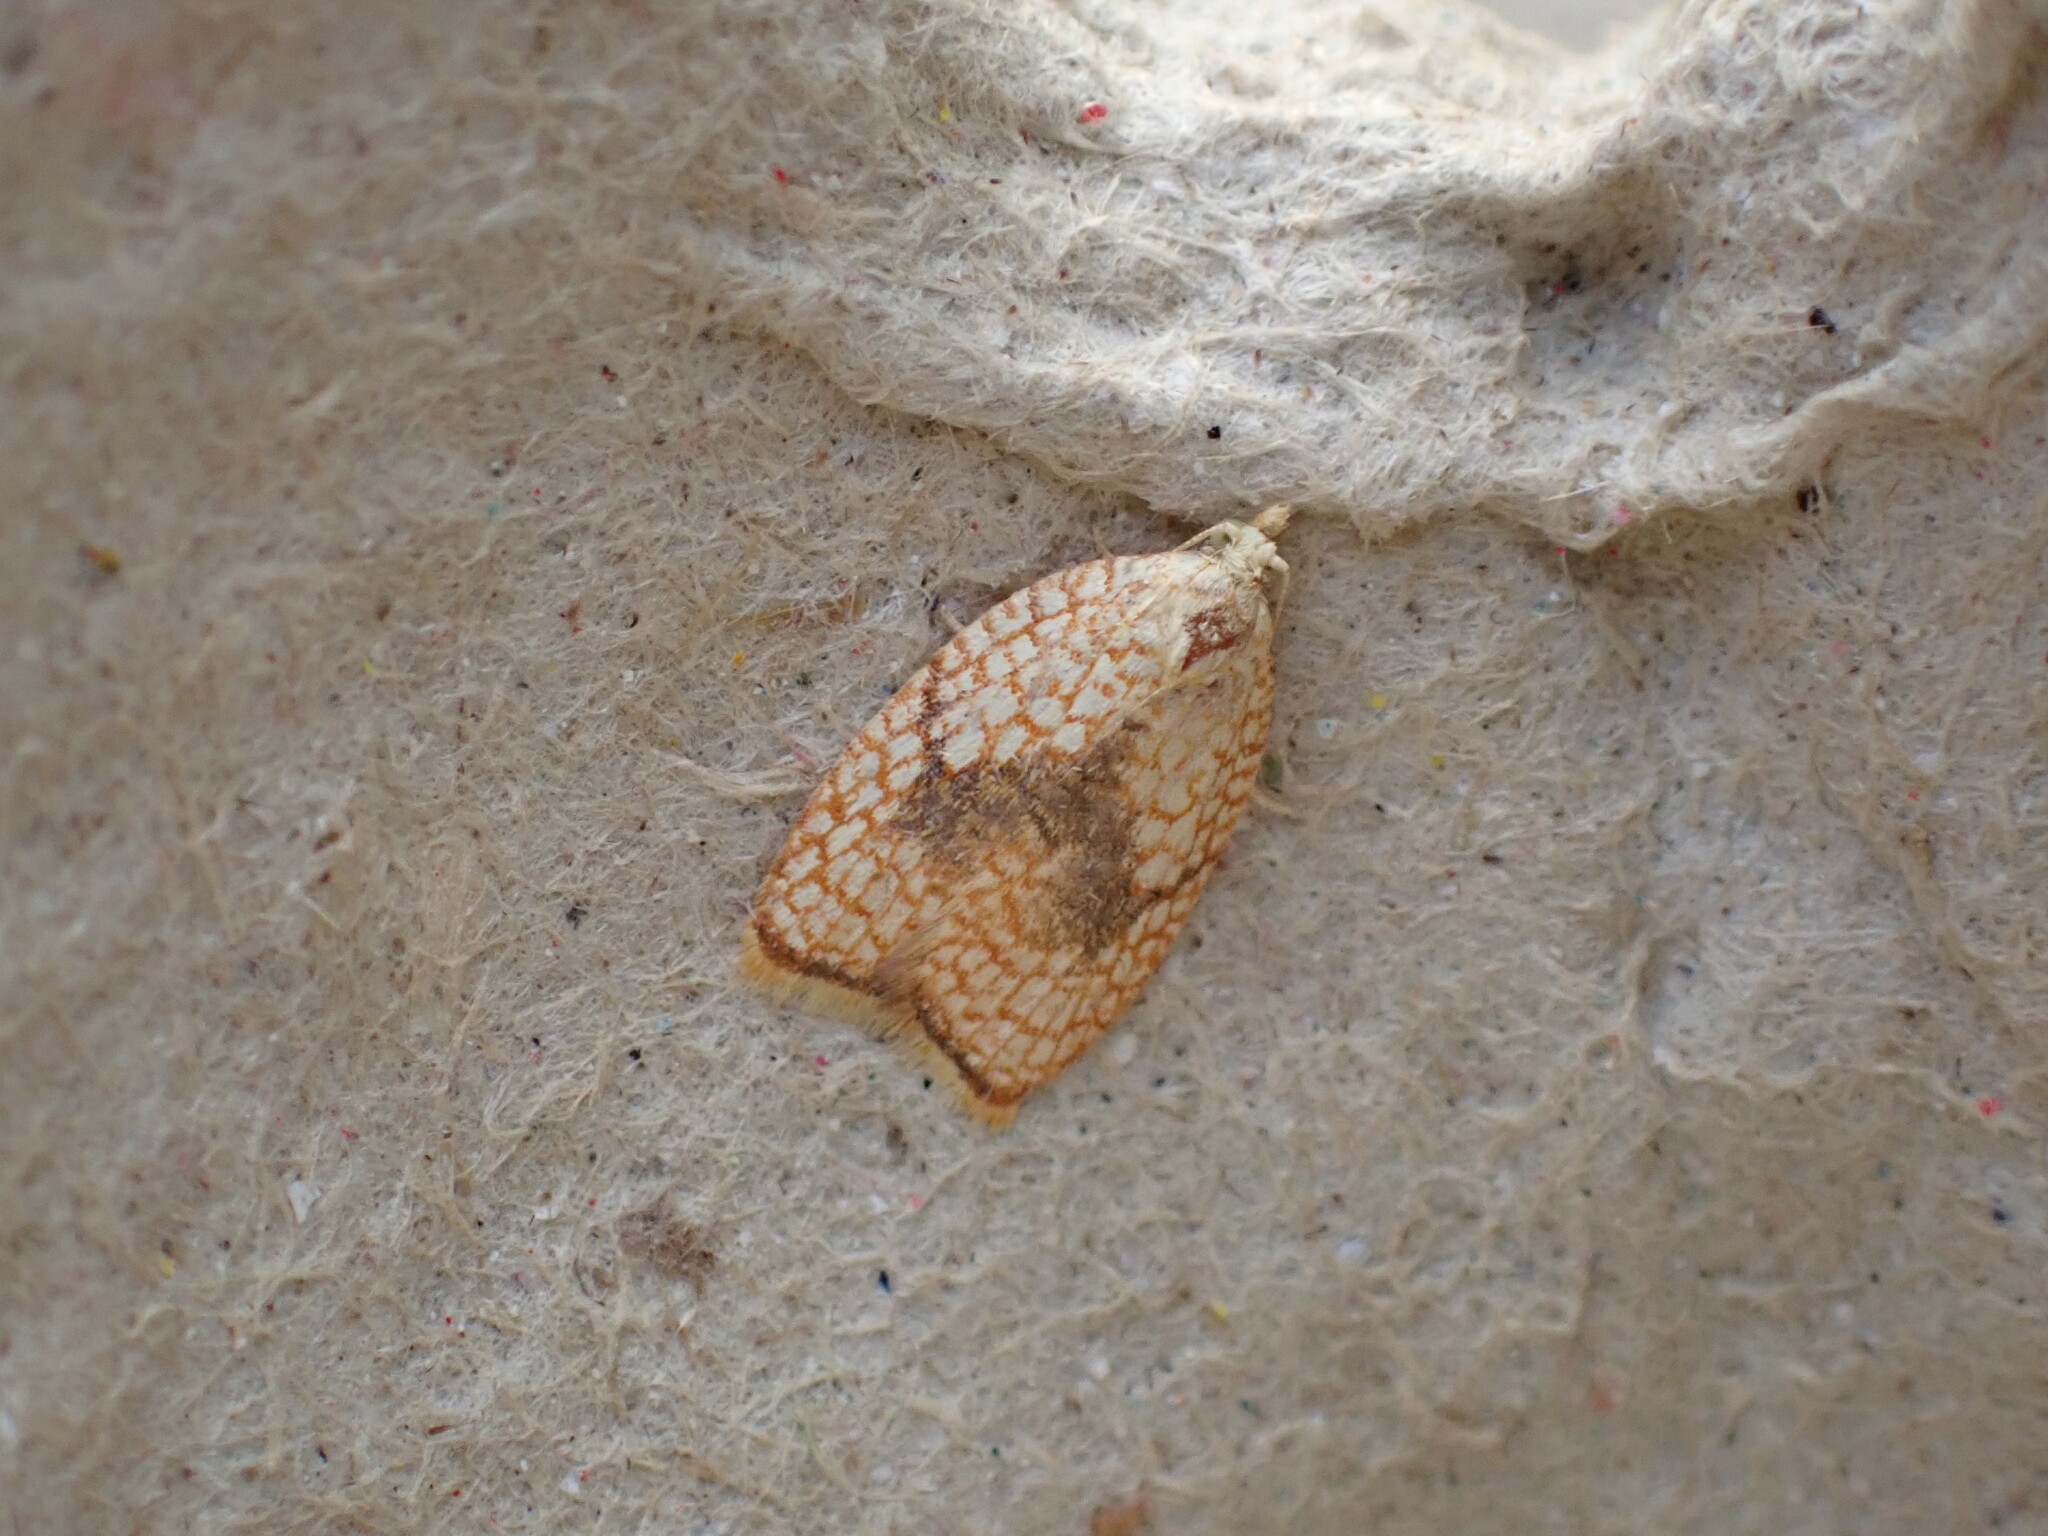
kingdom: Animalia
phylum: Arthropoda
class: Insecta
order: Lepidoptera
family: Tortricidae
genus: Acleris
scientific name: Acleris forsskaleana
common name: Maple button
